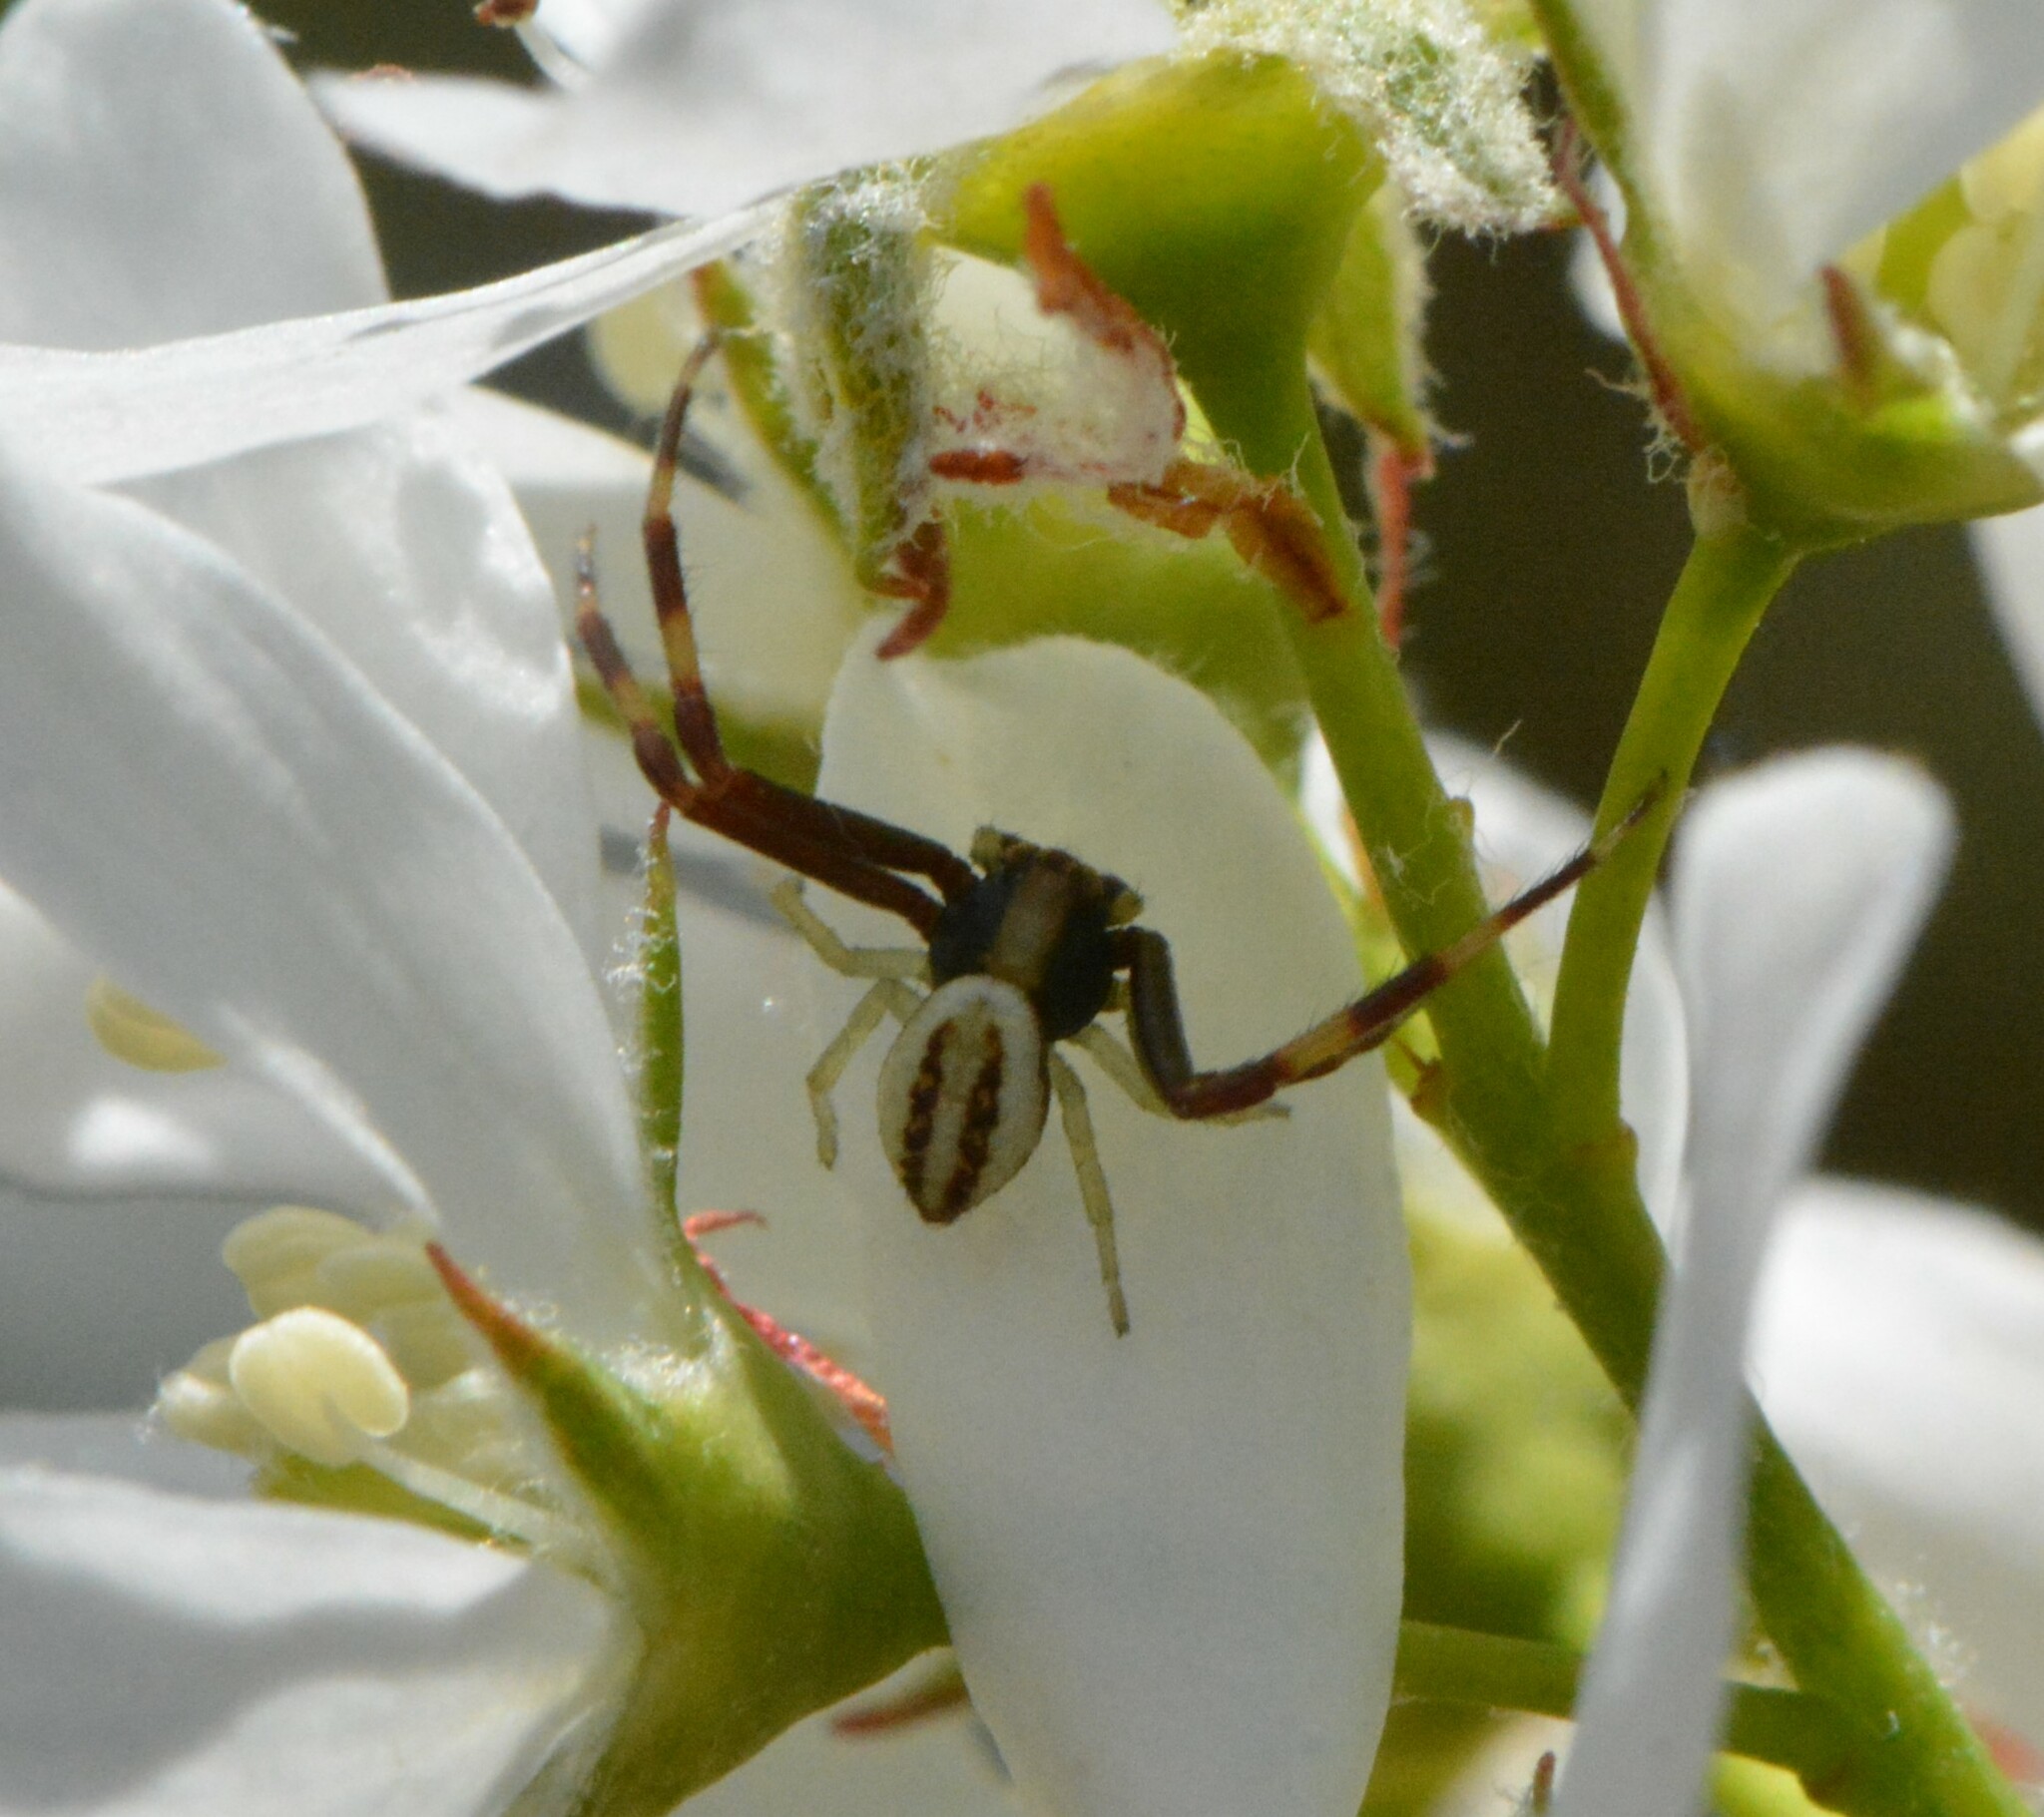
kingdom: Animalia
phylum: Arthropoda
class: Arachnida
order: Araneae
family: Thomisidae
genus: Misumena
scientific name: Misumena vatia
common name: Goldenrod crab spider
